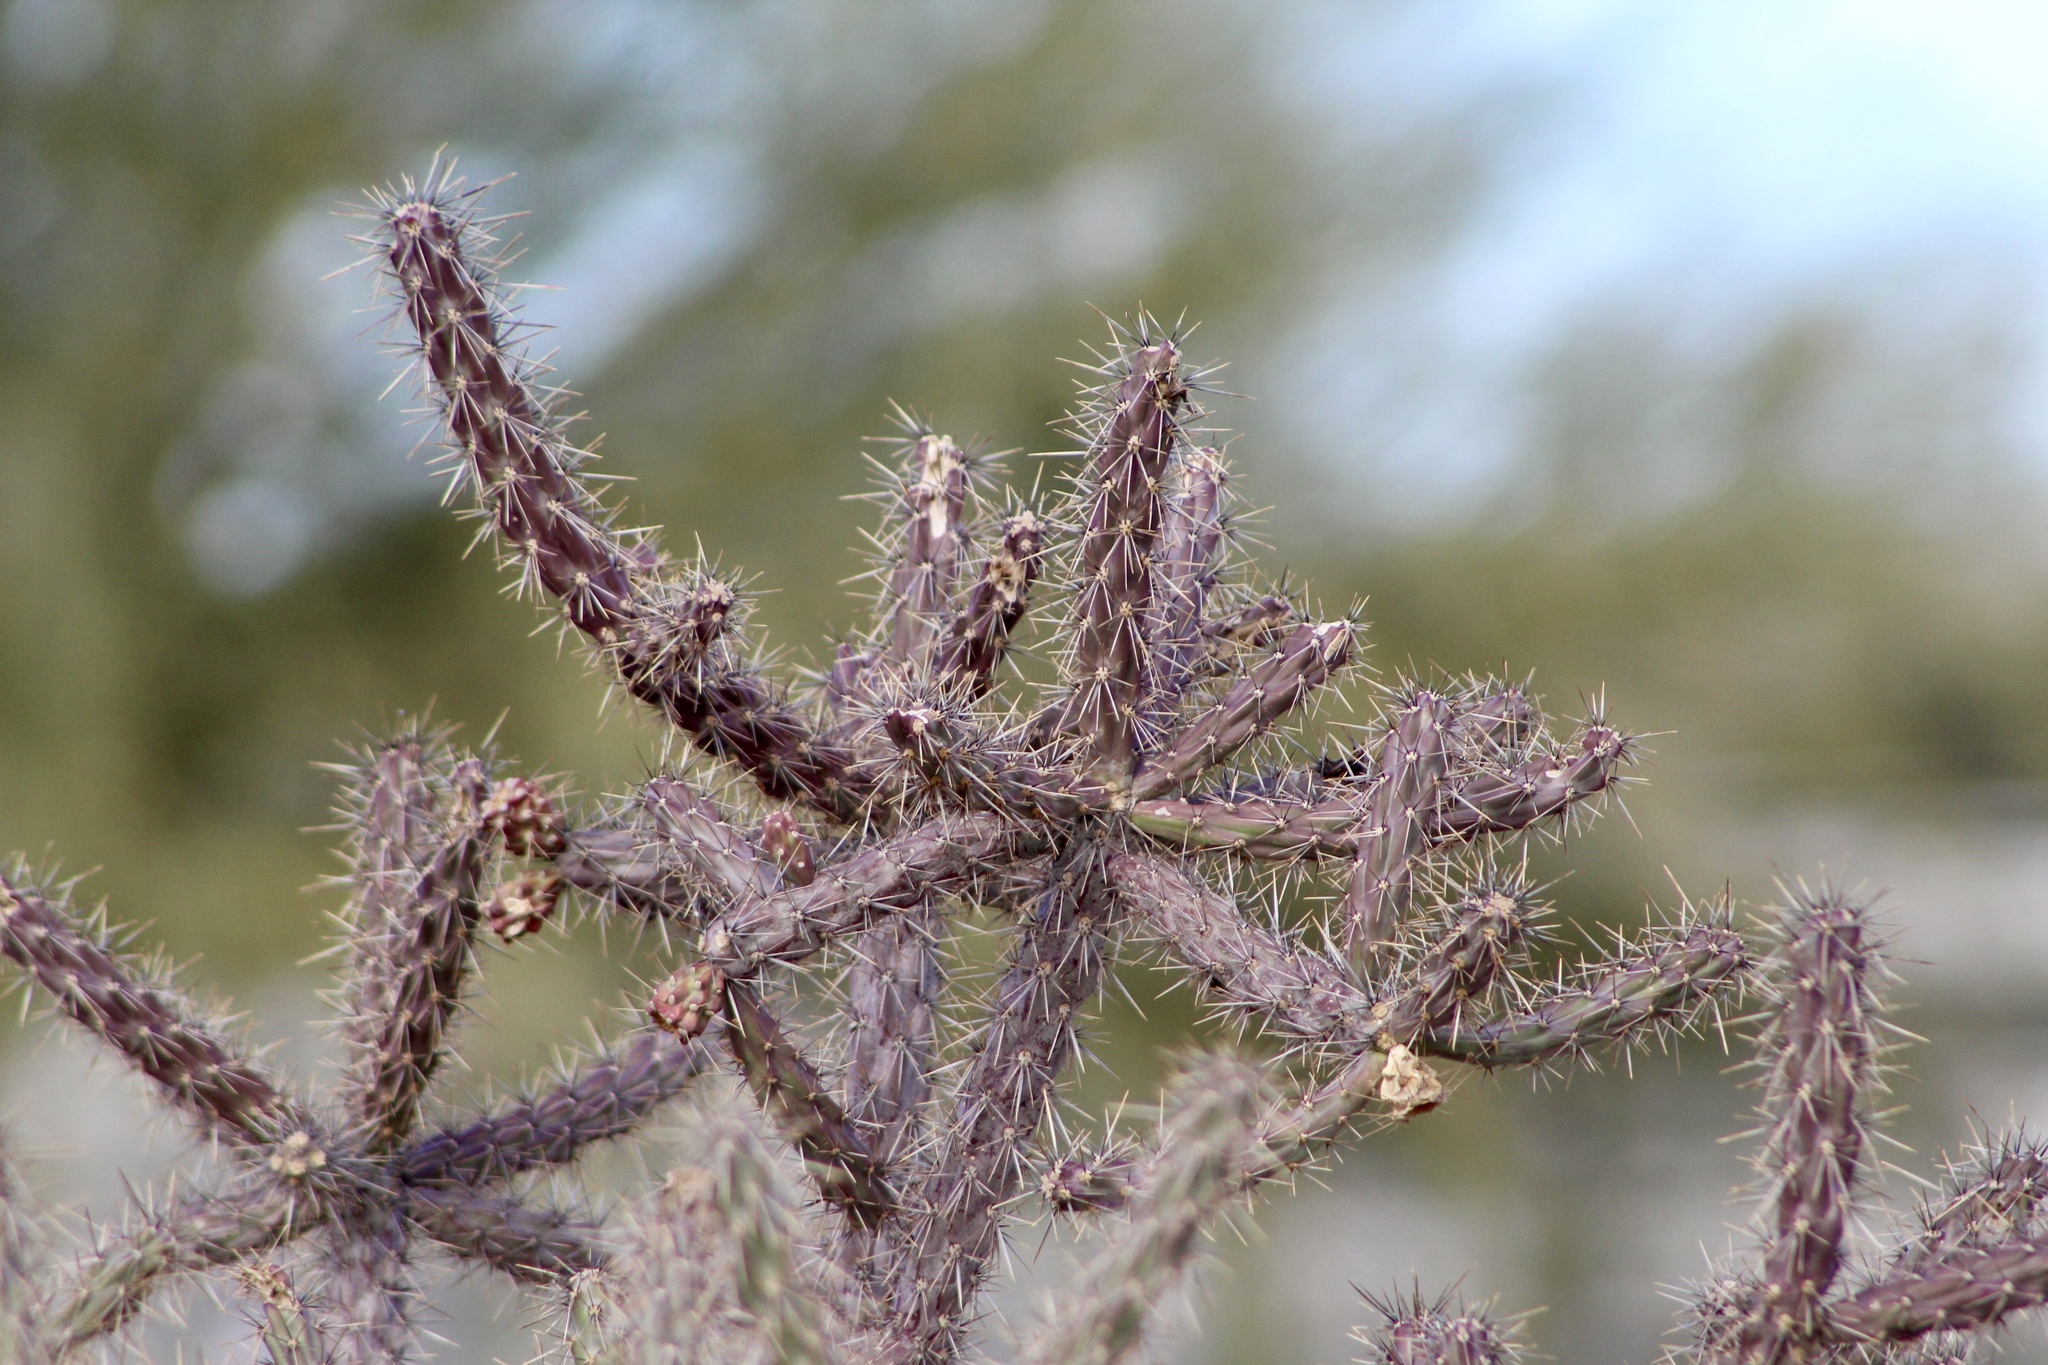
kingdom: Plantae
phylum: Tracheophyta
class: Magnoliopsida
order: Caryophyllales
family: Cactaceae
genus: Cylindropuntia
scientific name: Cylindropuntia thurberi
